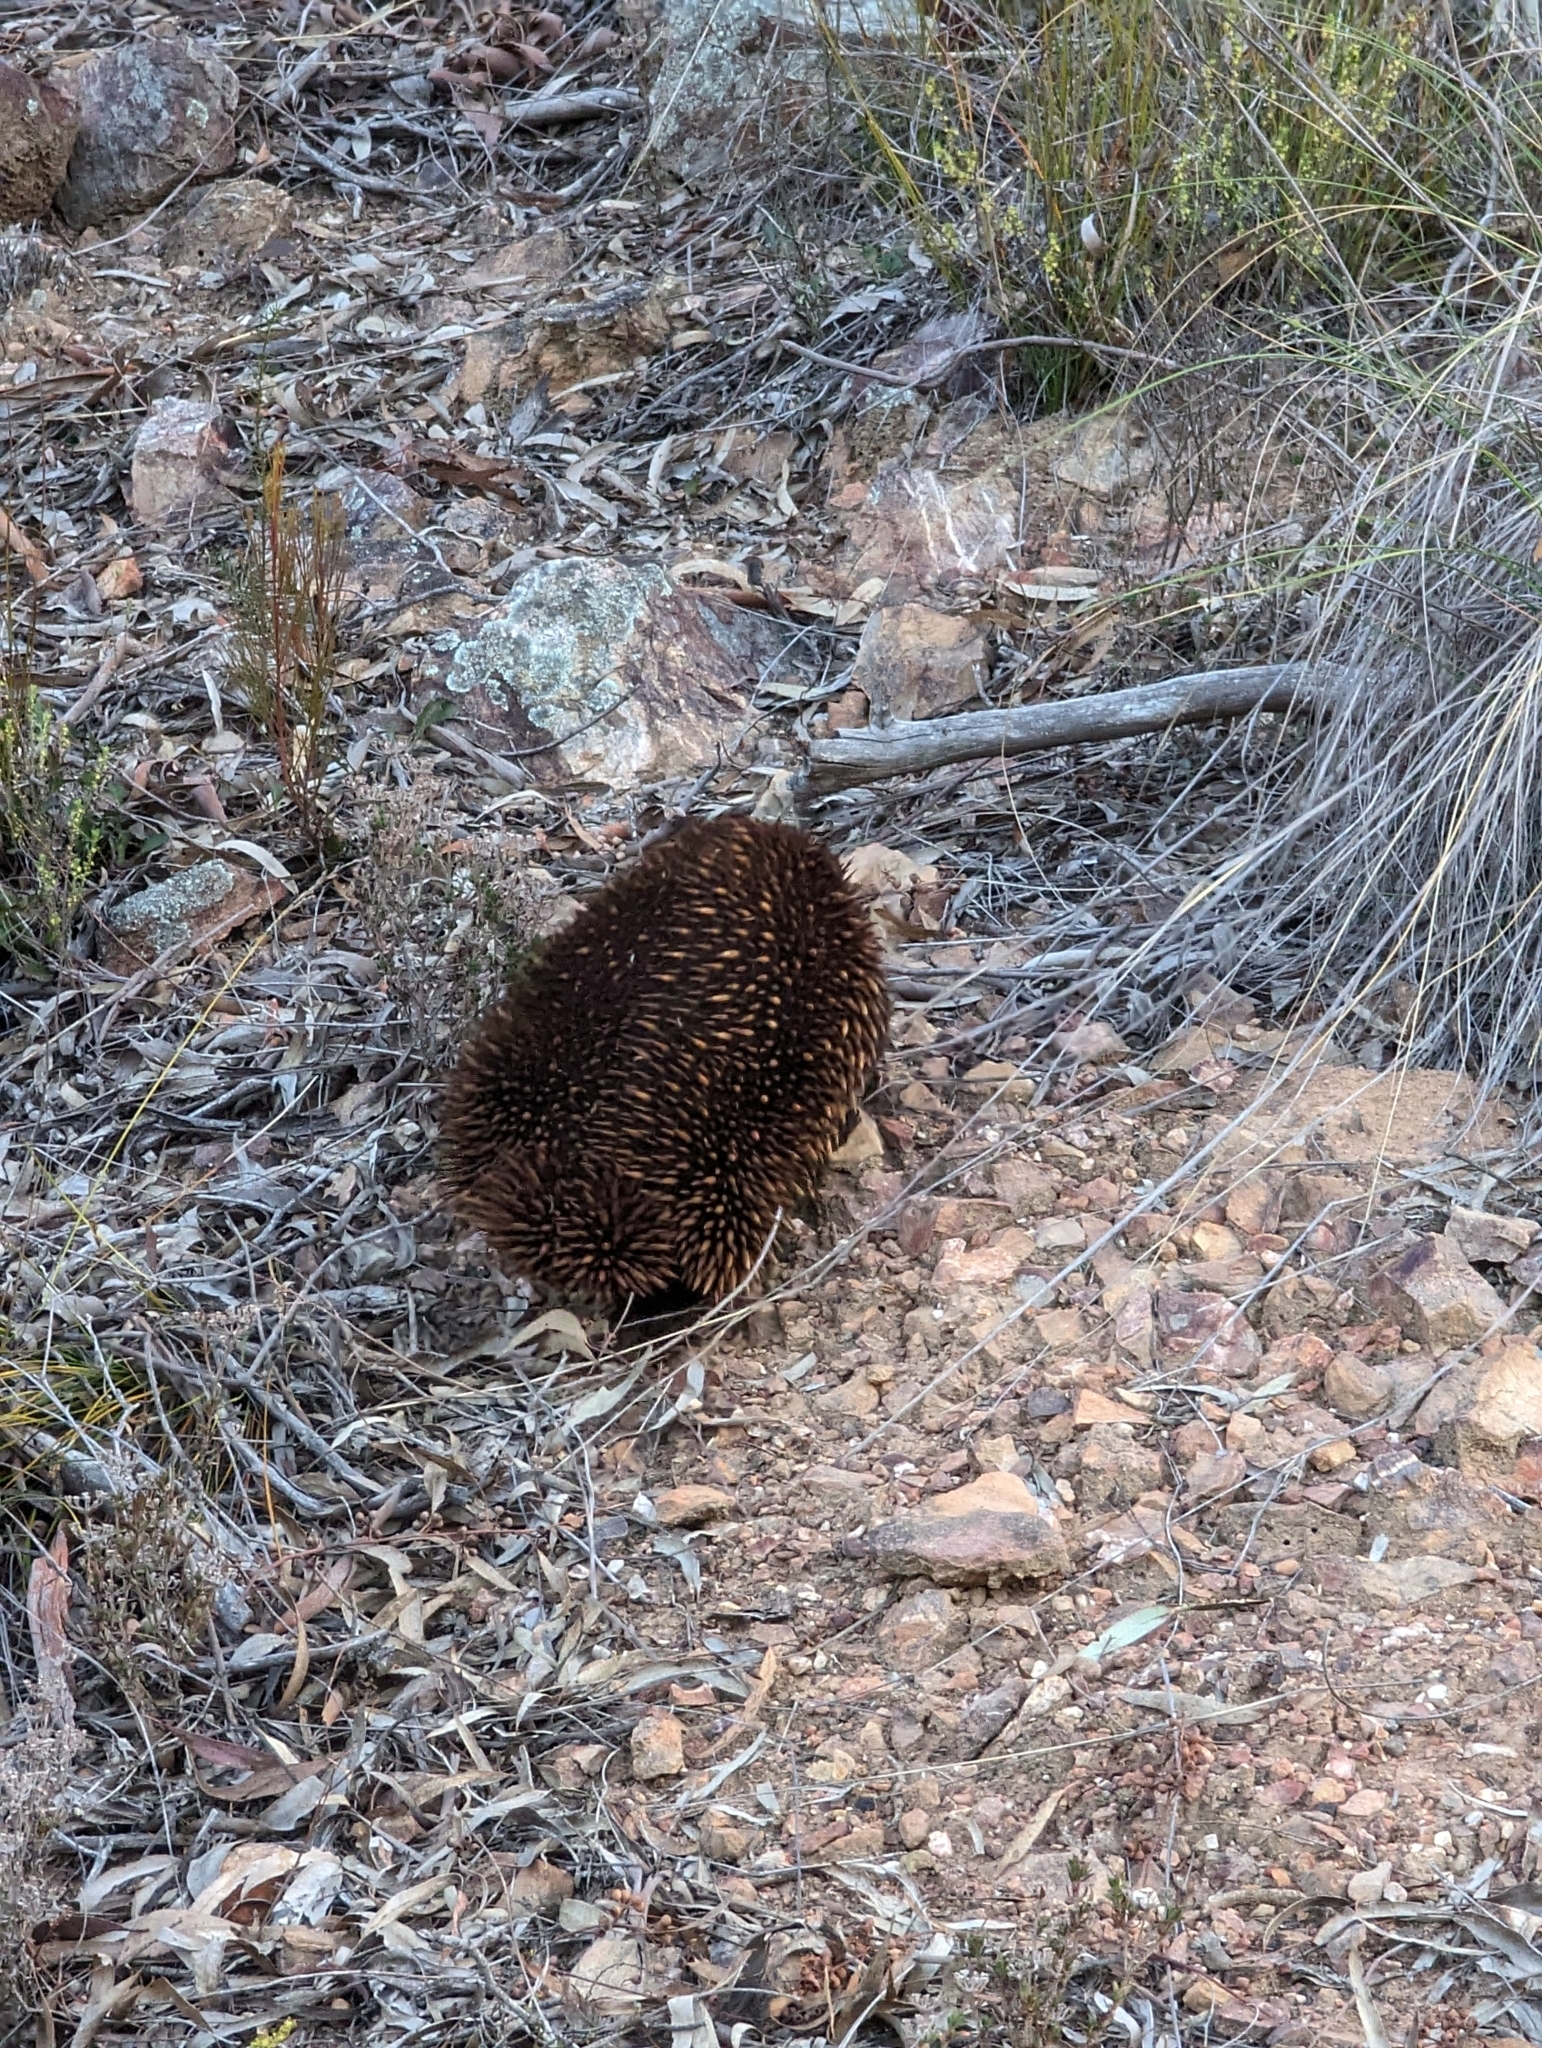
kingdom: Animalia
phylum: Chordata
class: Mammalia
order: Monotremata
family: Tachyglossidae
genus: Tachyglossus
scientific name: Tachyglossus aculeatus
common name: Short-beaked echidna
